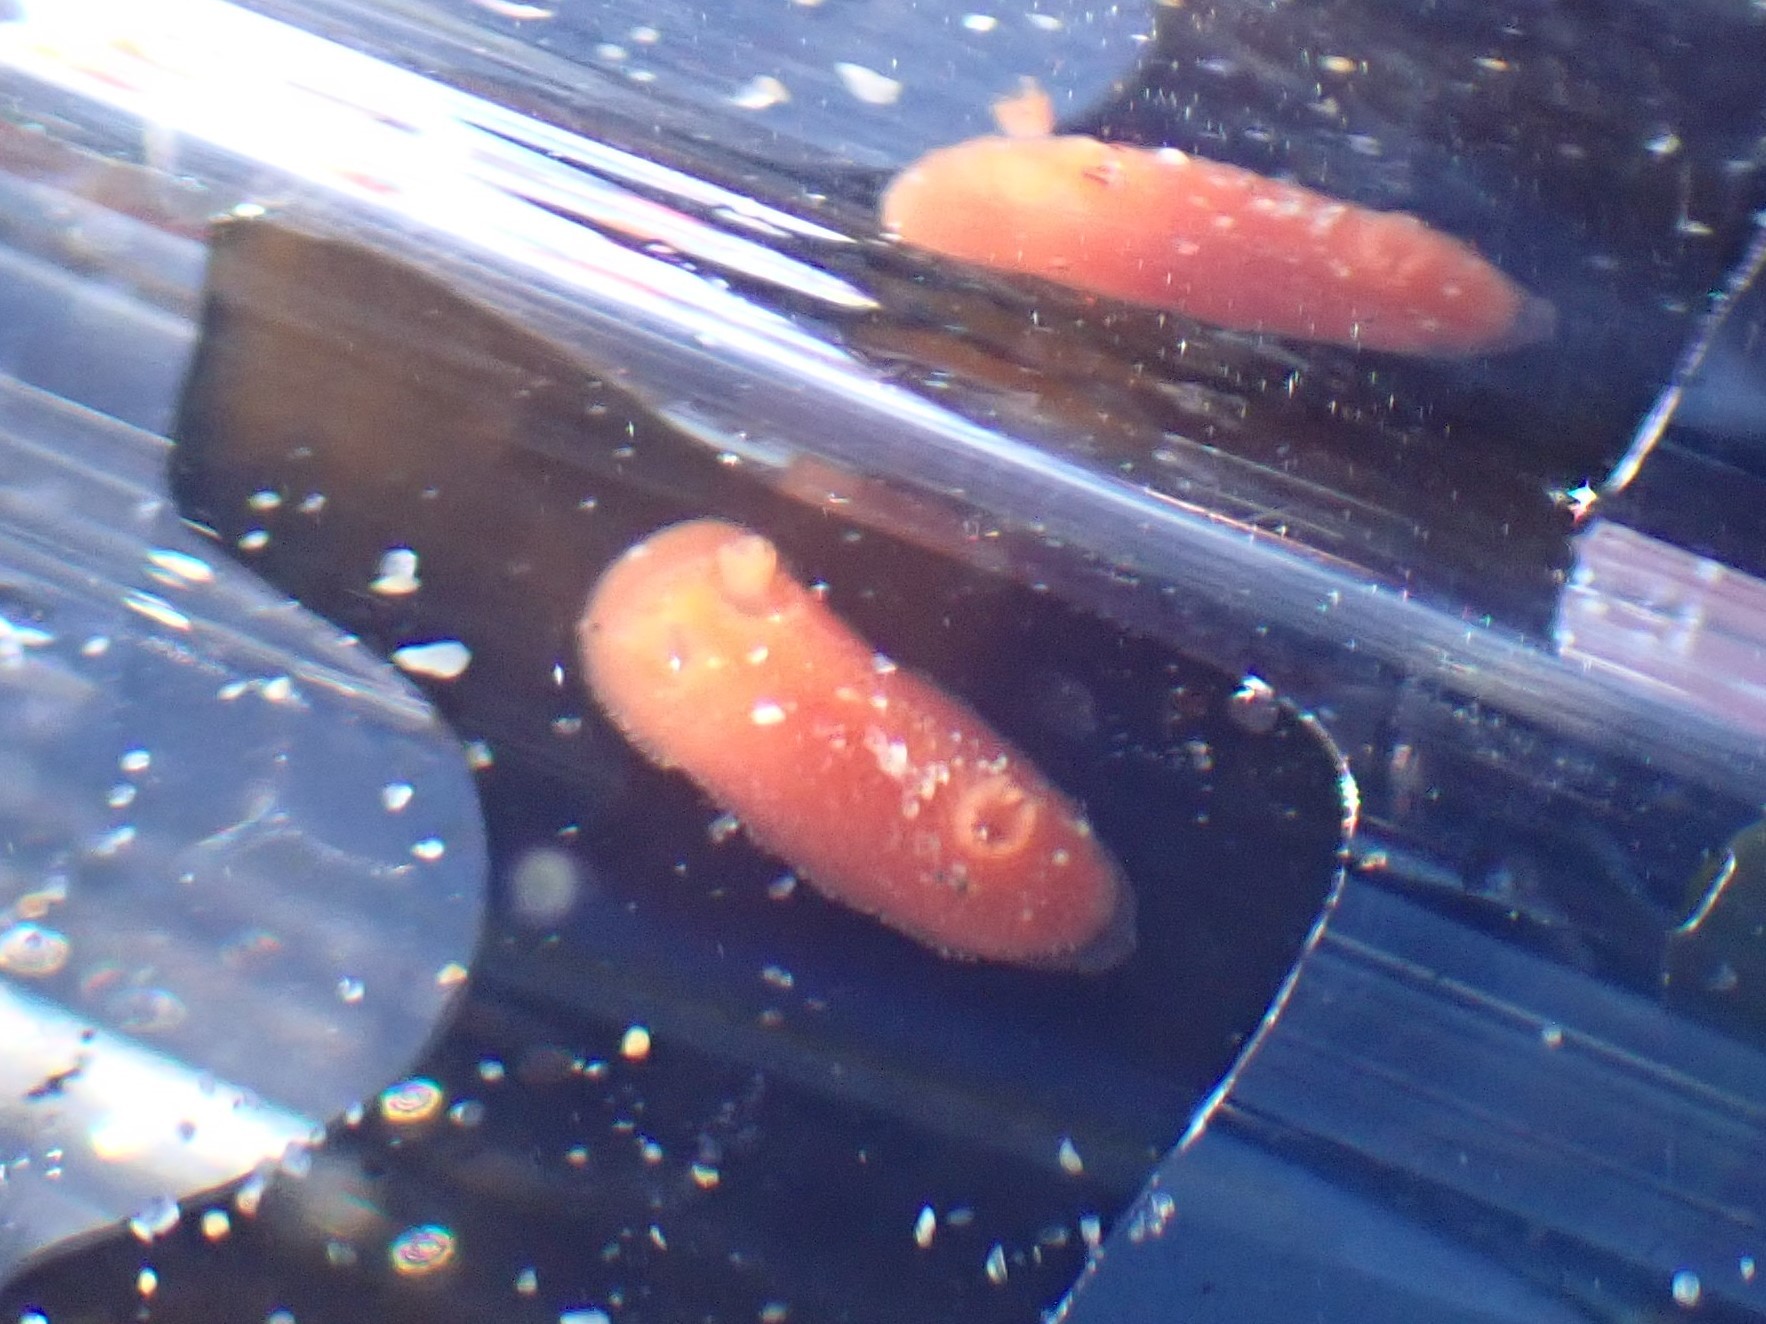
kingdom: Animalia
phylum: Mollusca
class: Gastropoda
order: Nudibranchia
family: Discodorididae
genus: Rostanga
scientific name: Rostanga pulchra
